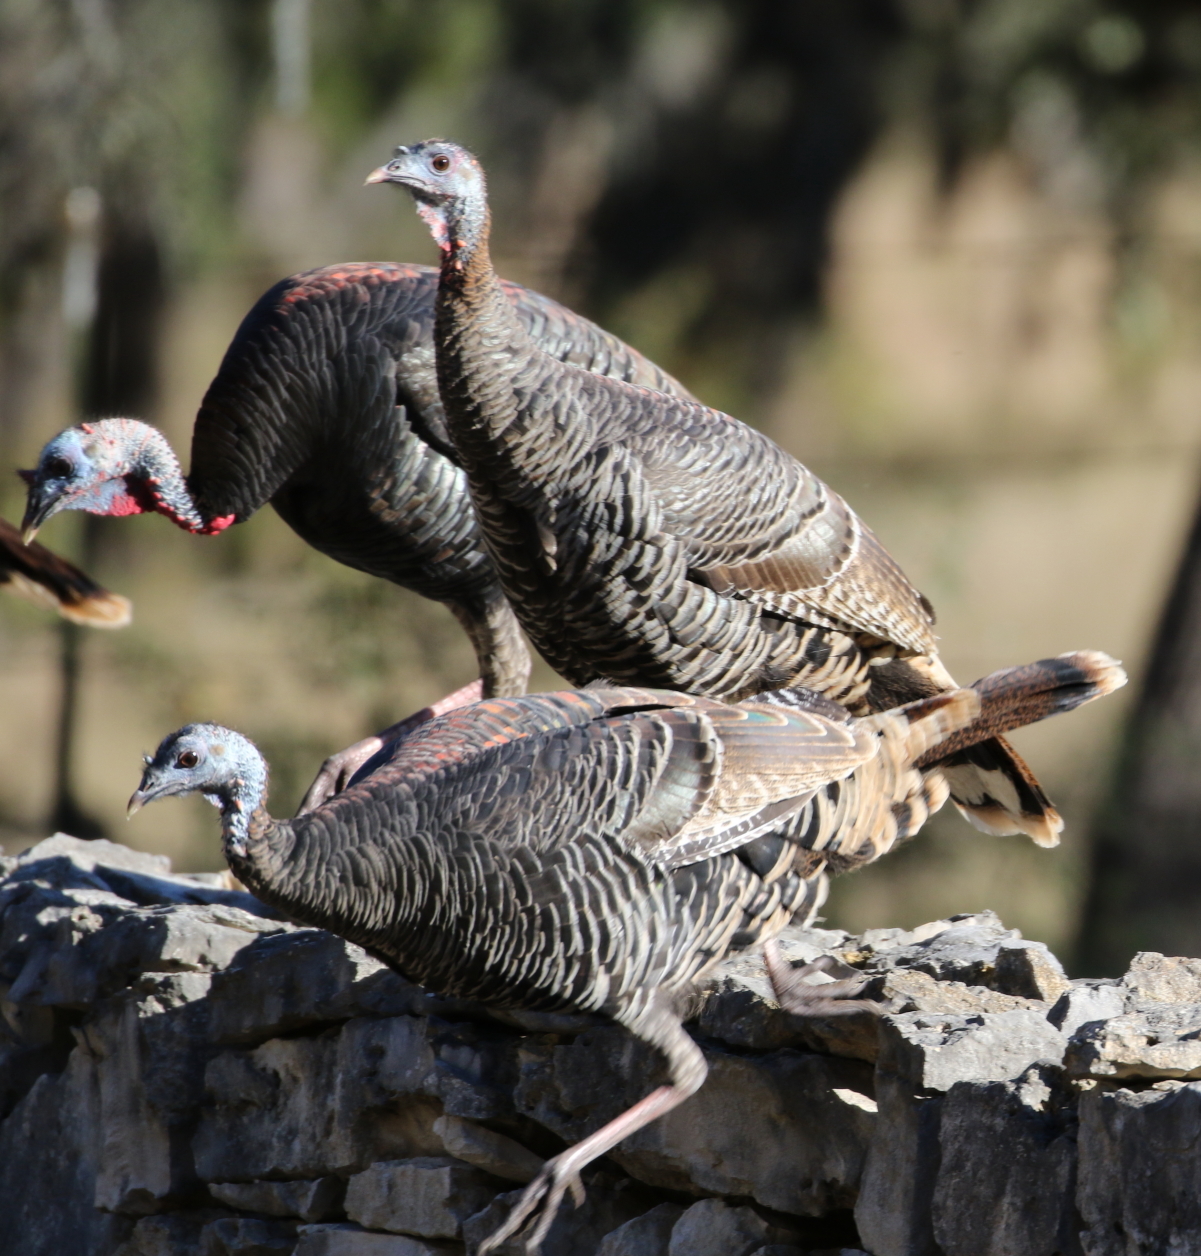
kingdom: Animalia
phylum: Chordata
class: Aves
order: Galliformes
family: Phasianidae
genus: Meleagris
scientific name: Meleagris gallopavo
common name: Wild turkey
